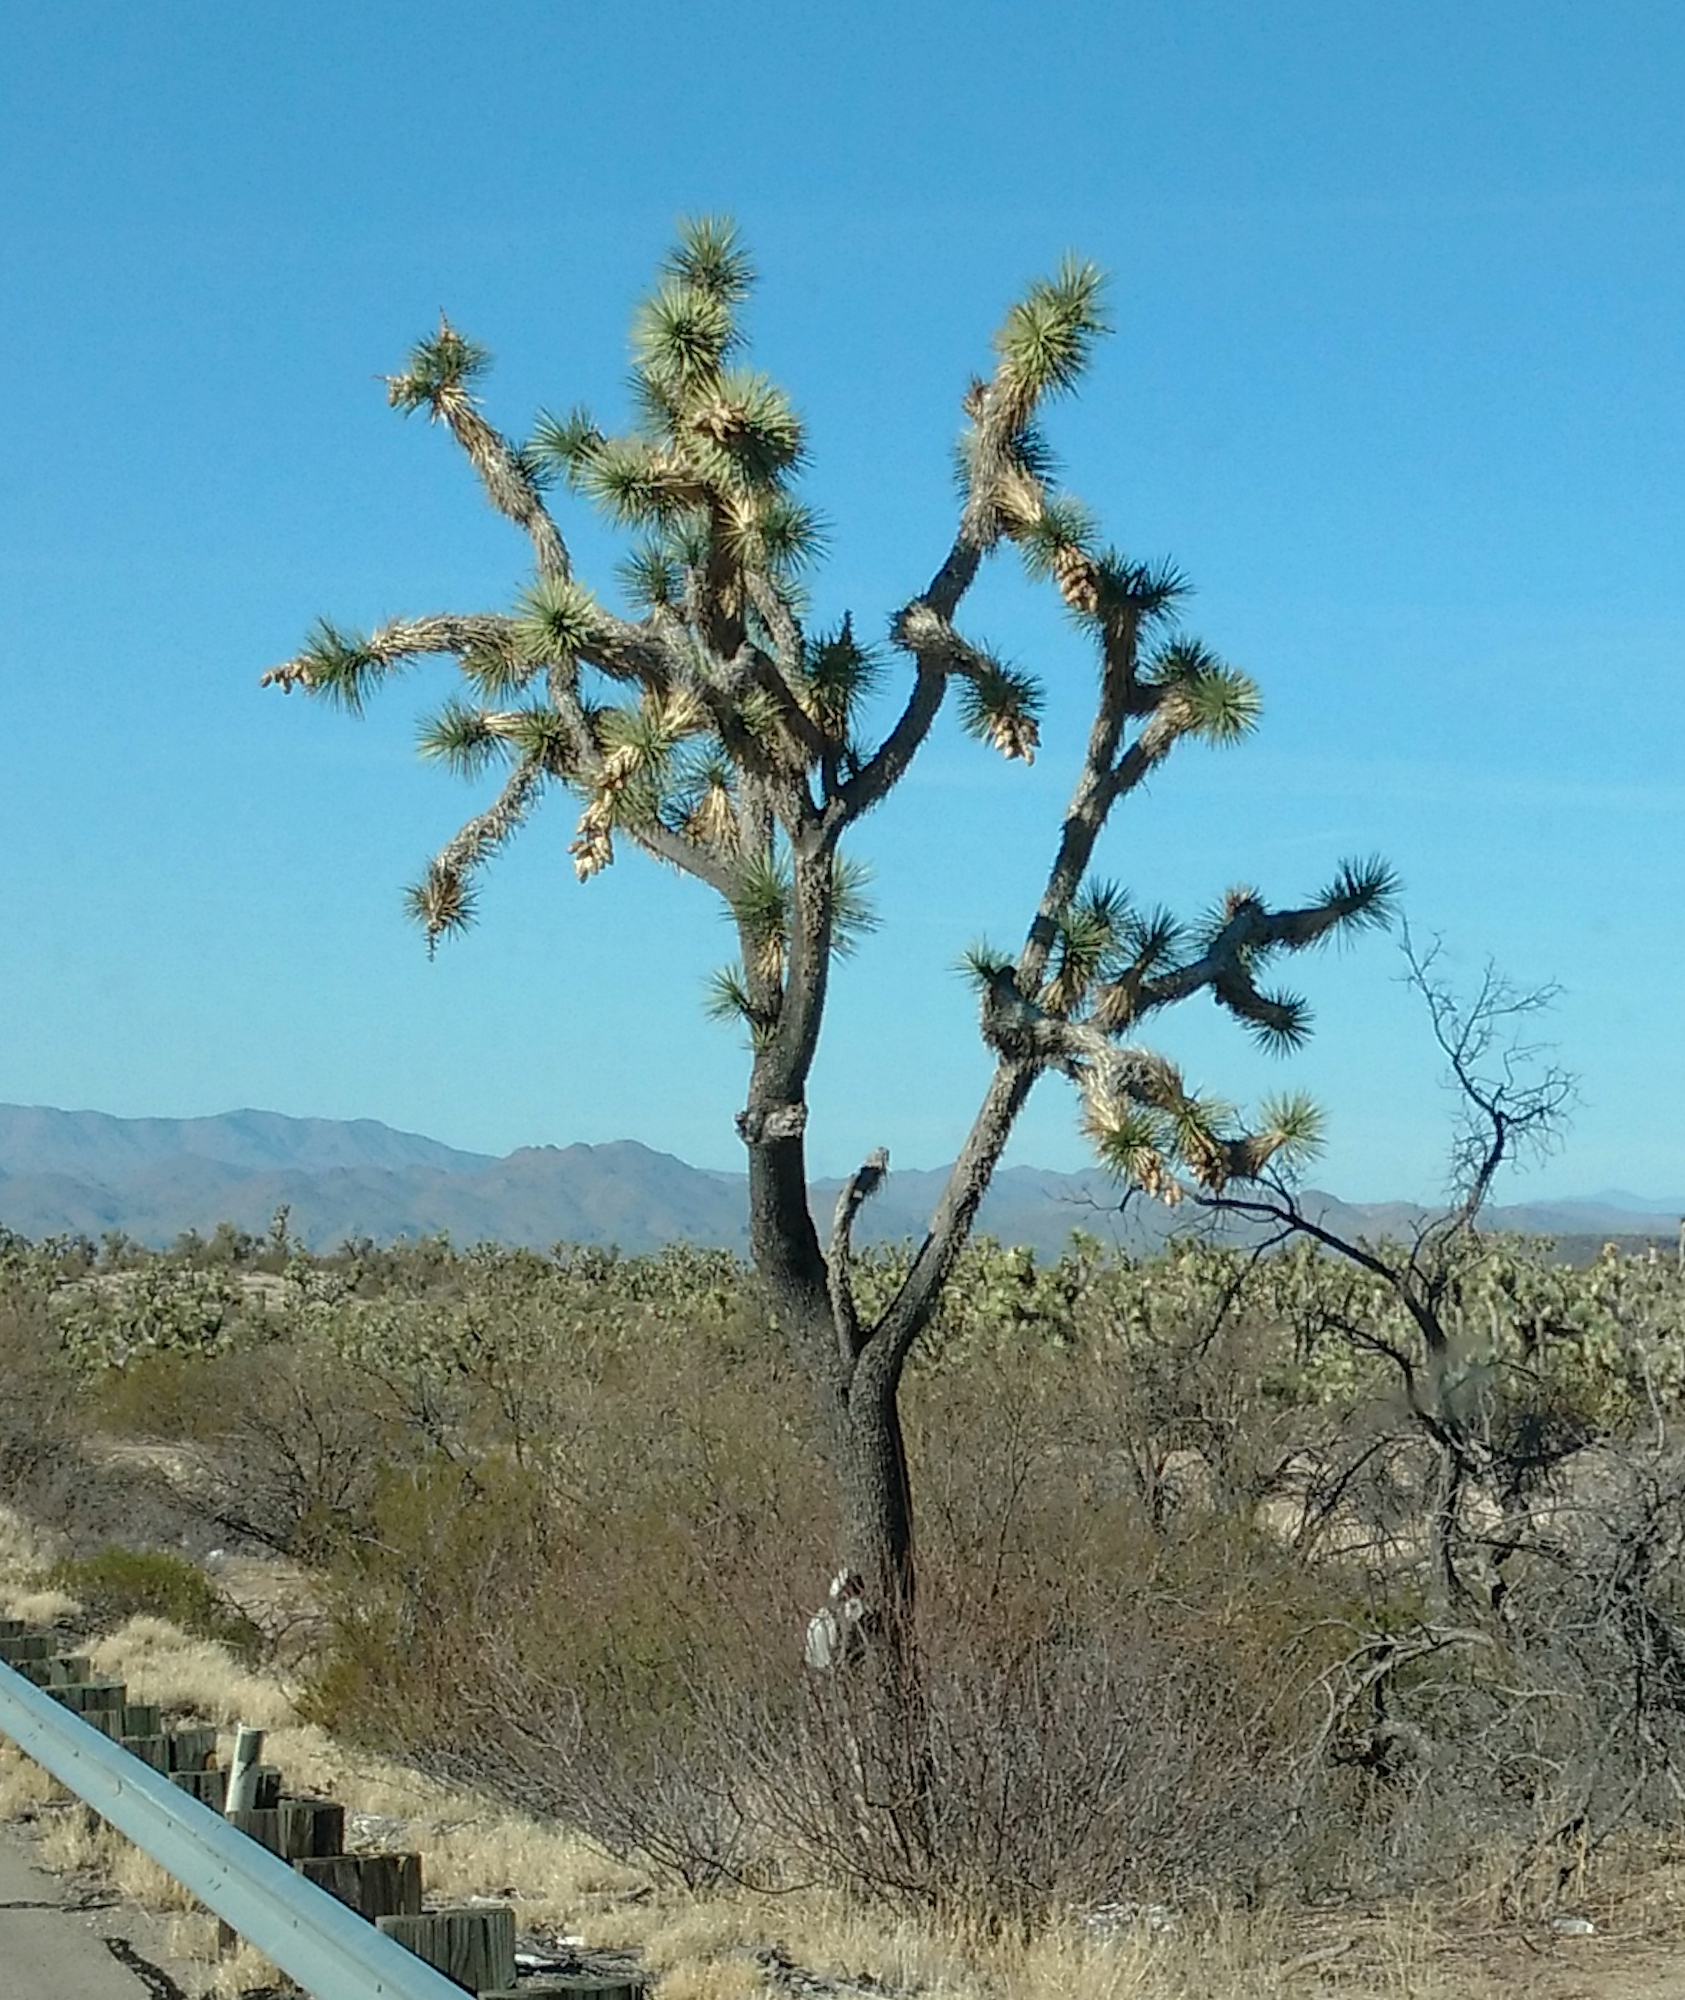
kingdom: Plantae
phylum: Tracheophyta
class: Liliopsida
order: Asparagales
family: Asparagaceae
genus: Yucca
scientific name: Yucca brevifolia
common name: Joshua tree
